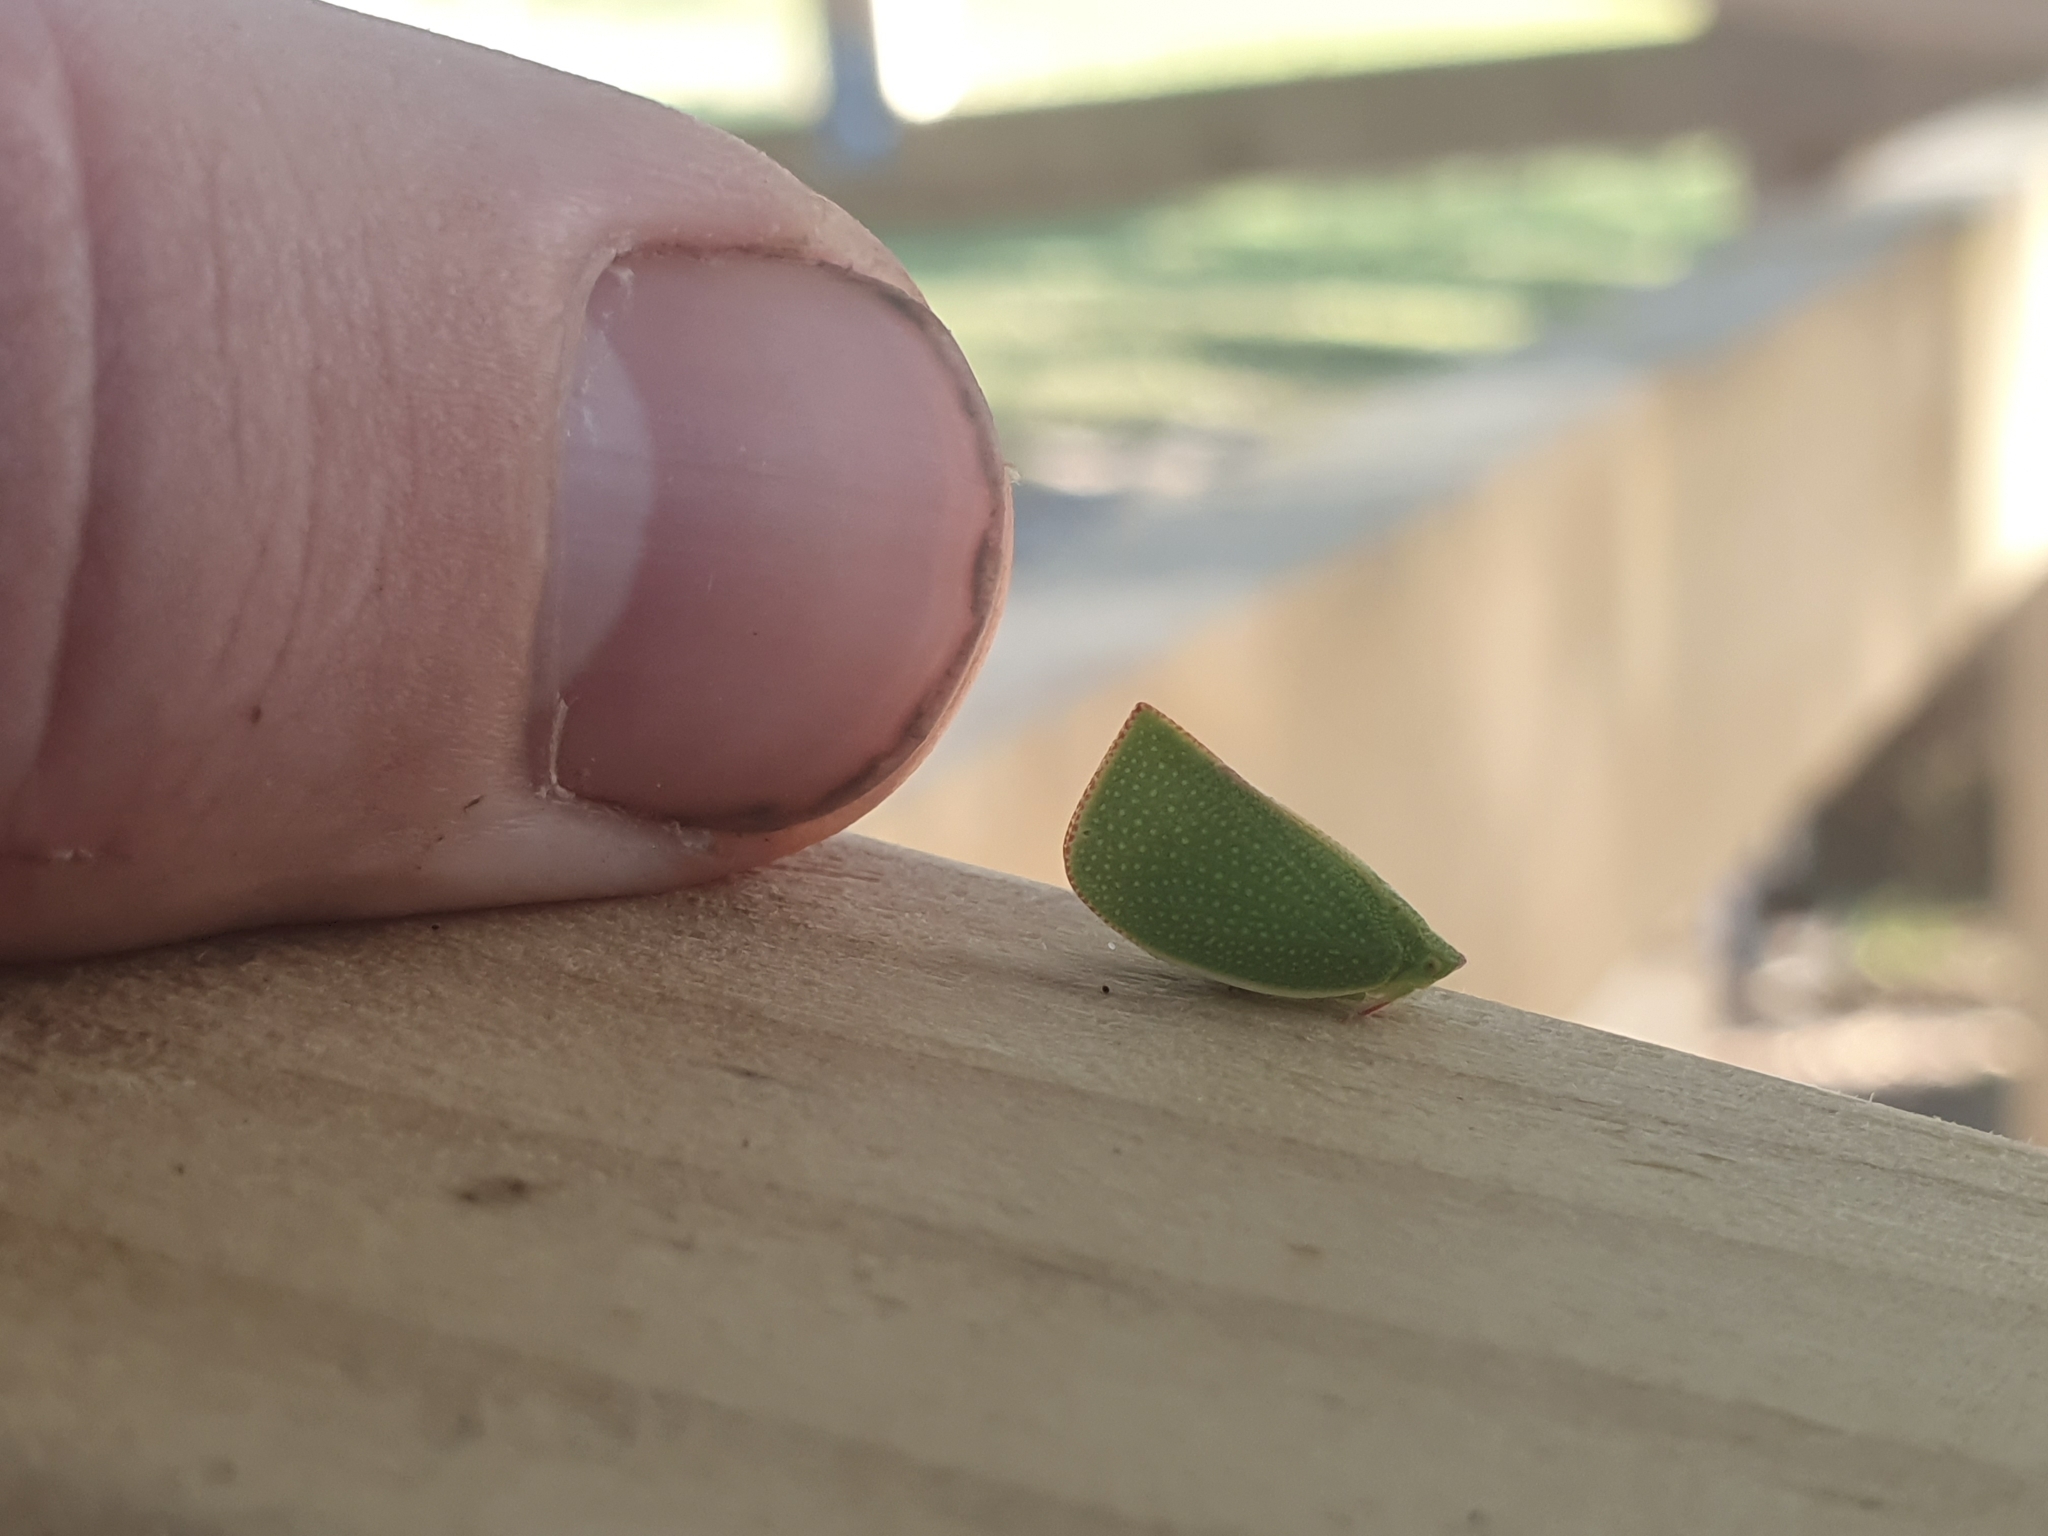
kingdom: Animalia
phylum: Arthropoda
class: Insecta
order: Hemiptera
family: Flatidae
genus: Siphanta
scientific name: Siphanta acuta
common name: Torpedo bug
